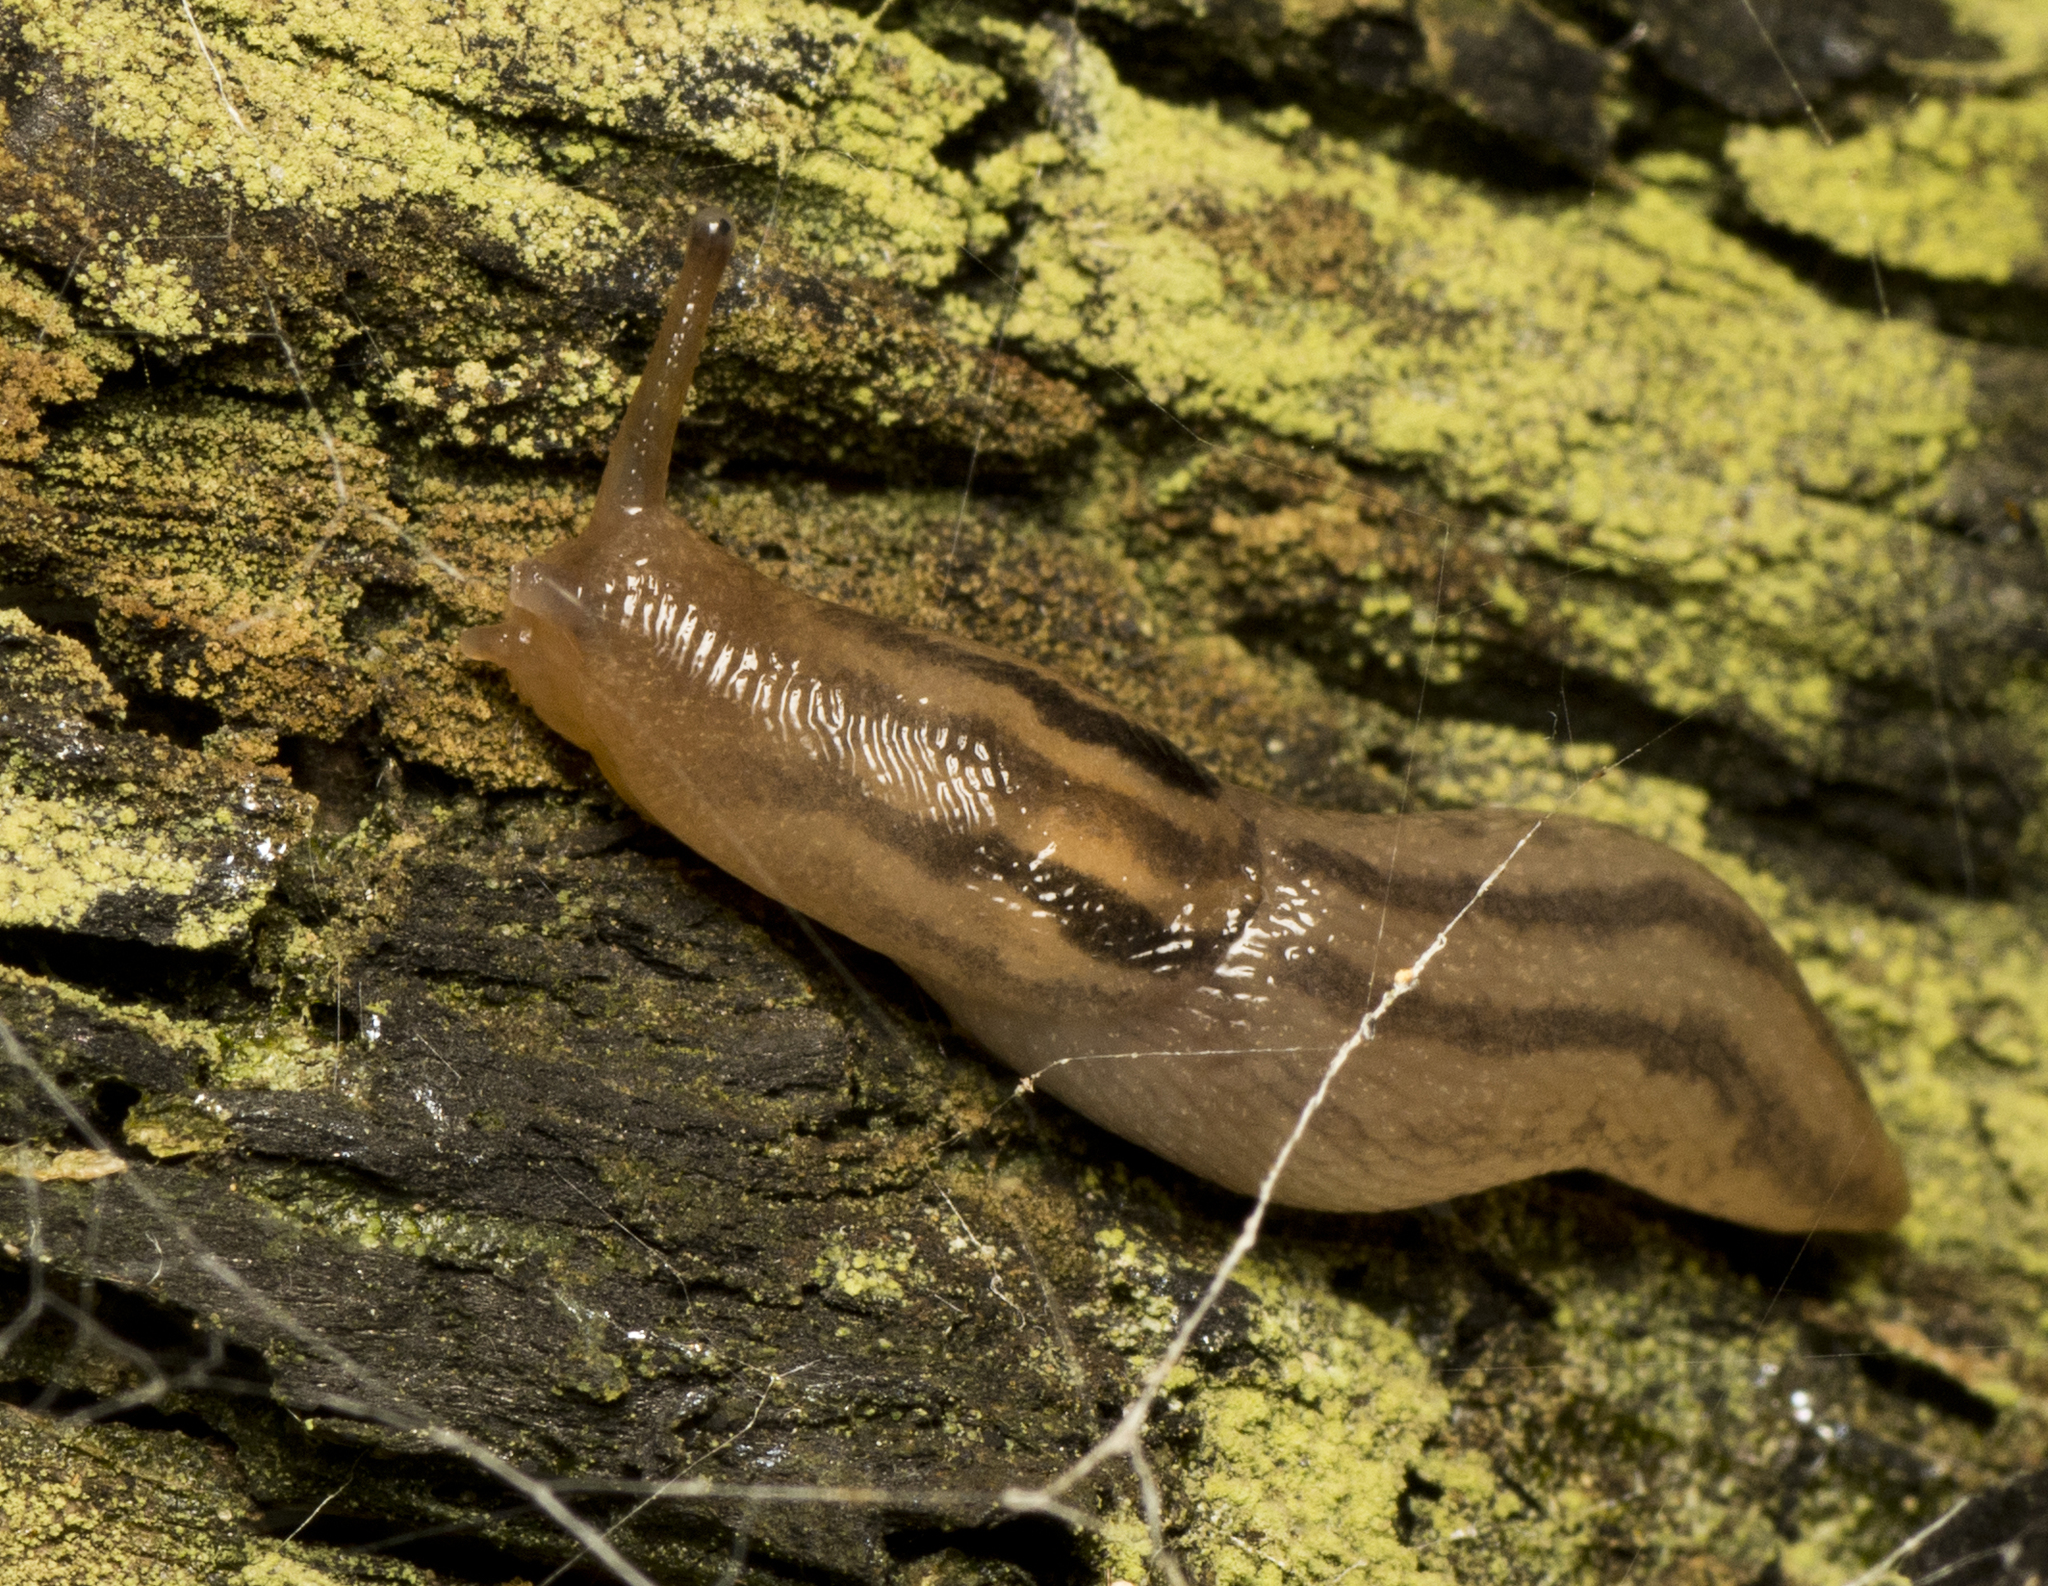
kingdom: Animalia
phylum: Mollusca
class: Gastropoda
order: Stylommatophora
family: Limacidae
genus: Ambigolimax
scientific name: Ambigolimax
